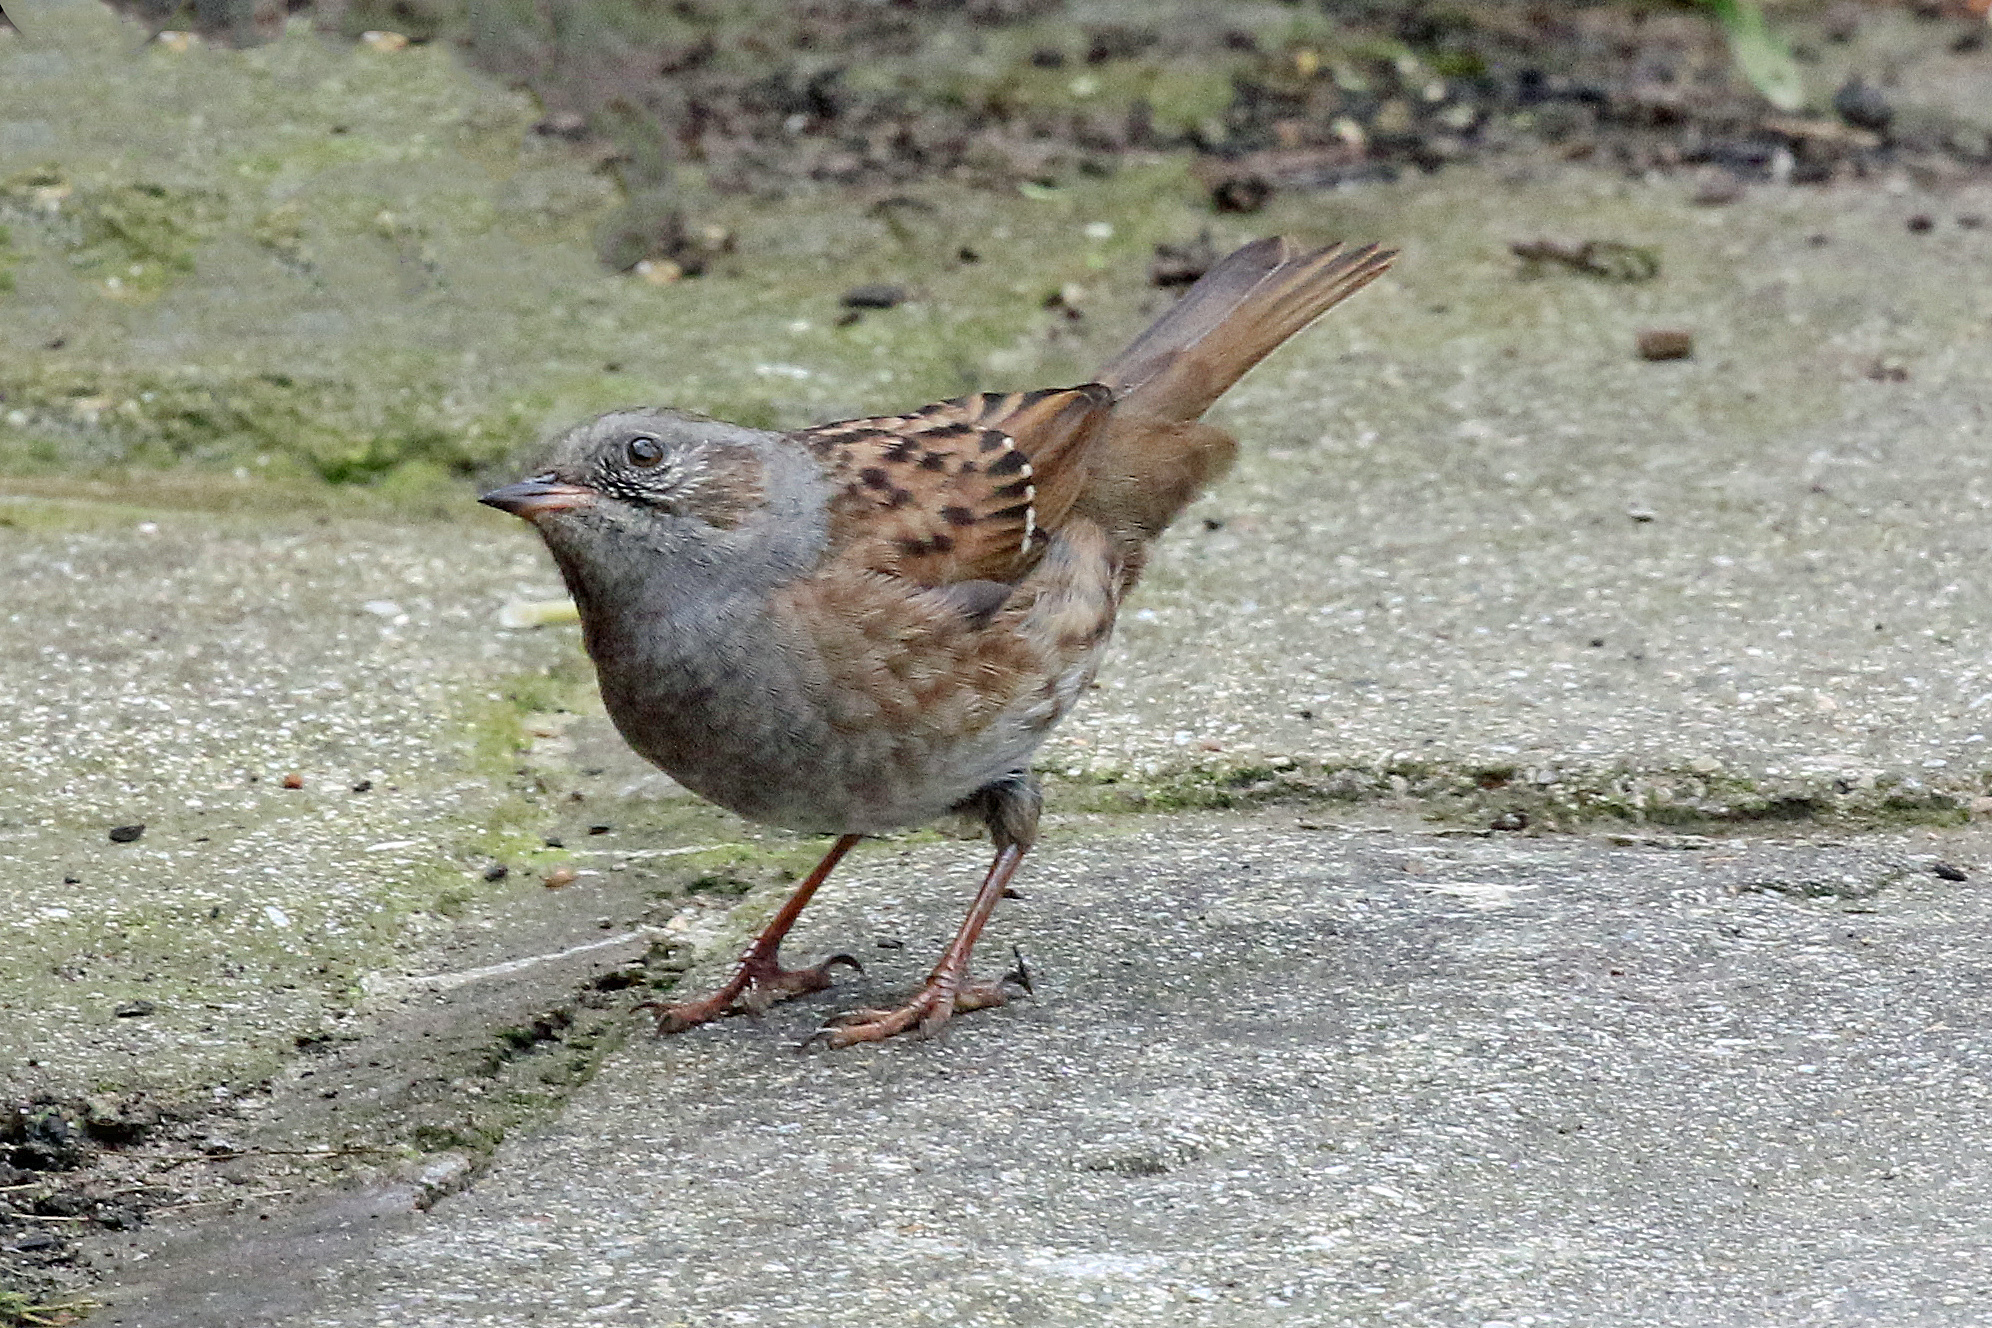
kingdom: Animalia
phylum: Chordata
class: Aves
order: Passeriformes
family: Prunellidae
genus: Prunella
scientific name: Prunella modularis
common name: Dunnock
